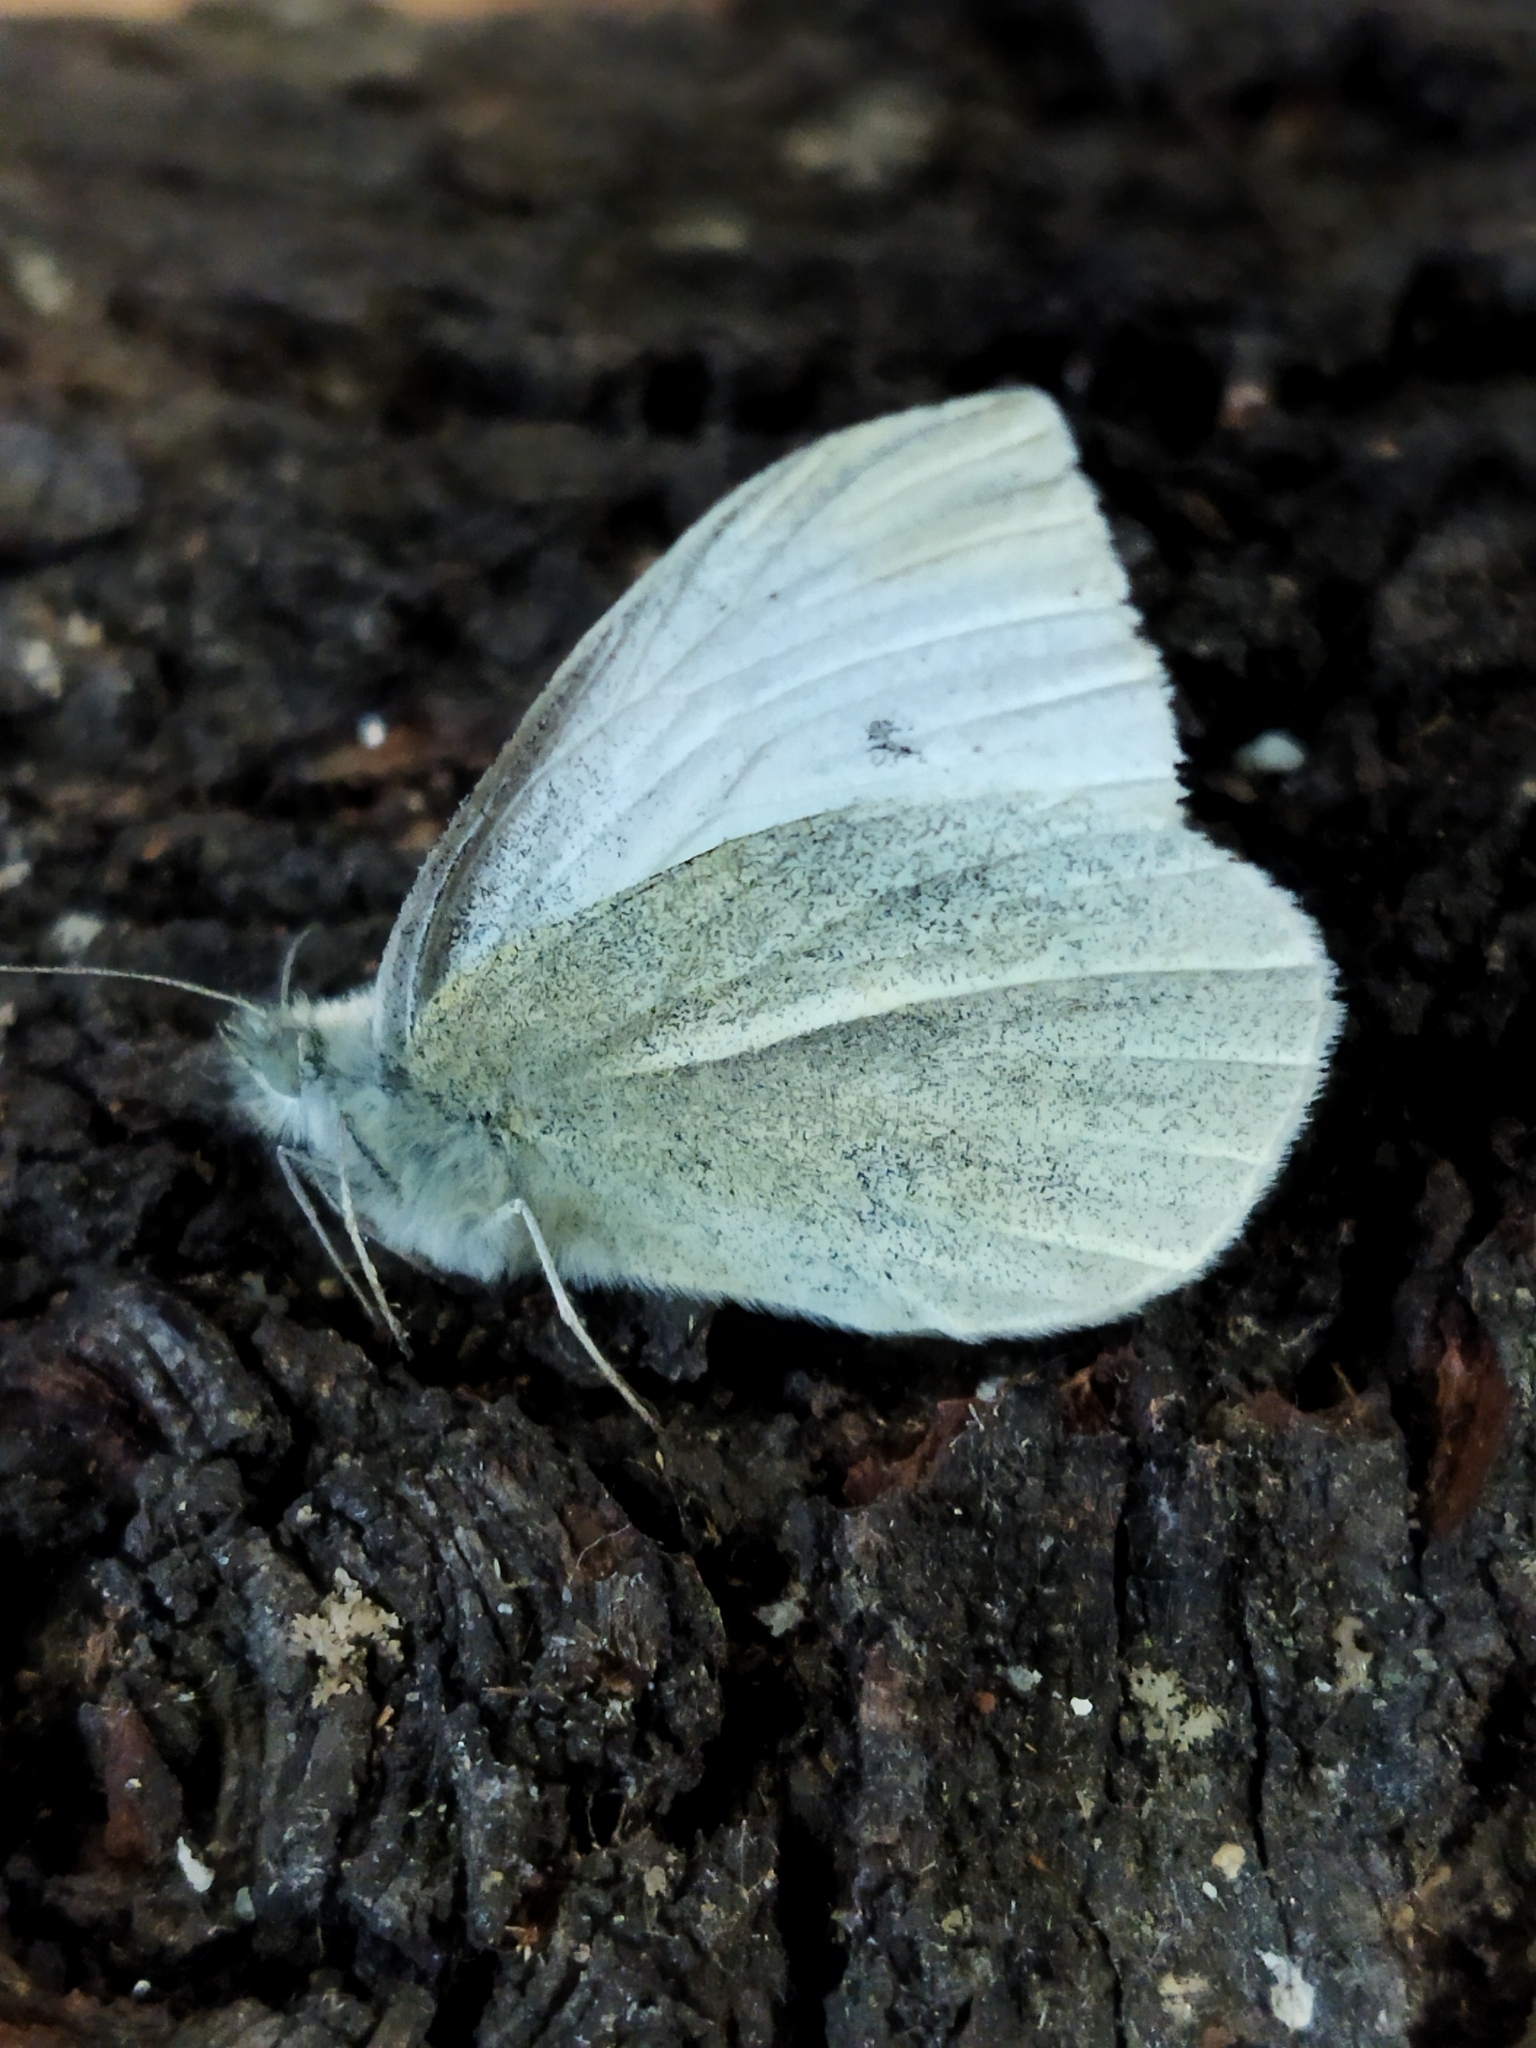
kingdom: Animalia
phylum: Arthropoda
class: Insecta
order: Lepidoptera
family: Pieridae
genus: Pieris
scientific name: Pieris rapae
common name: Small white
